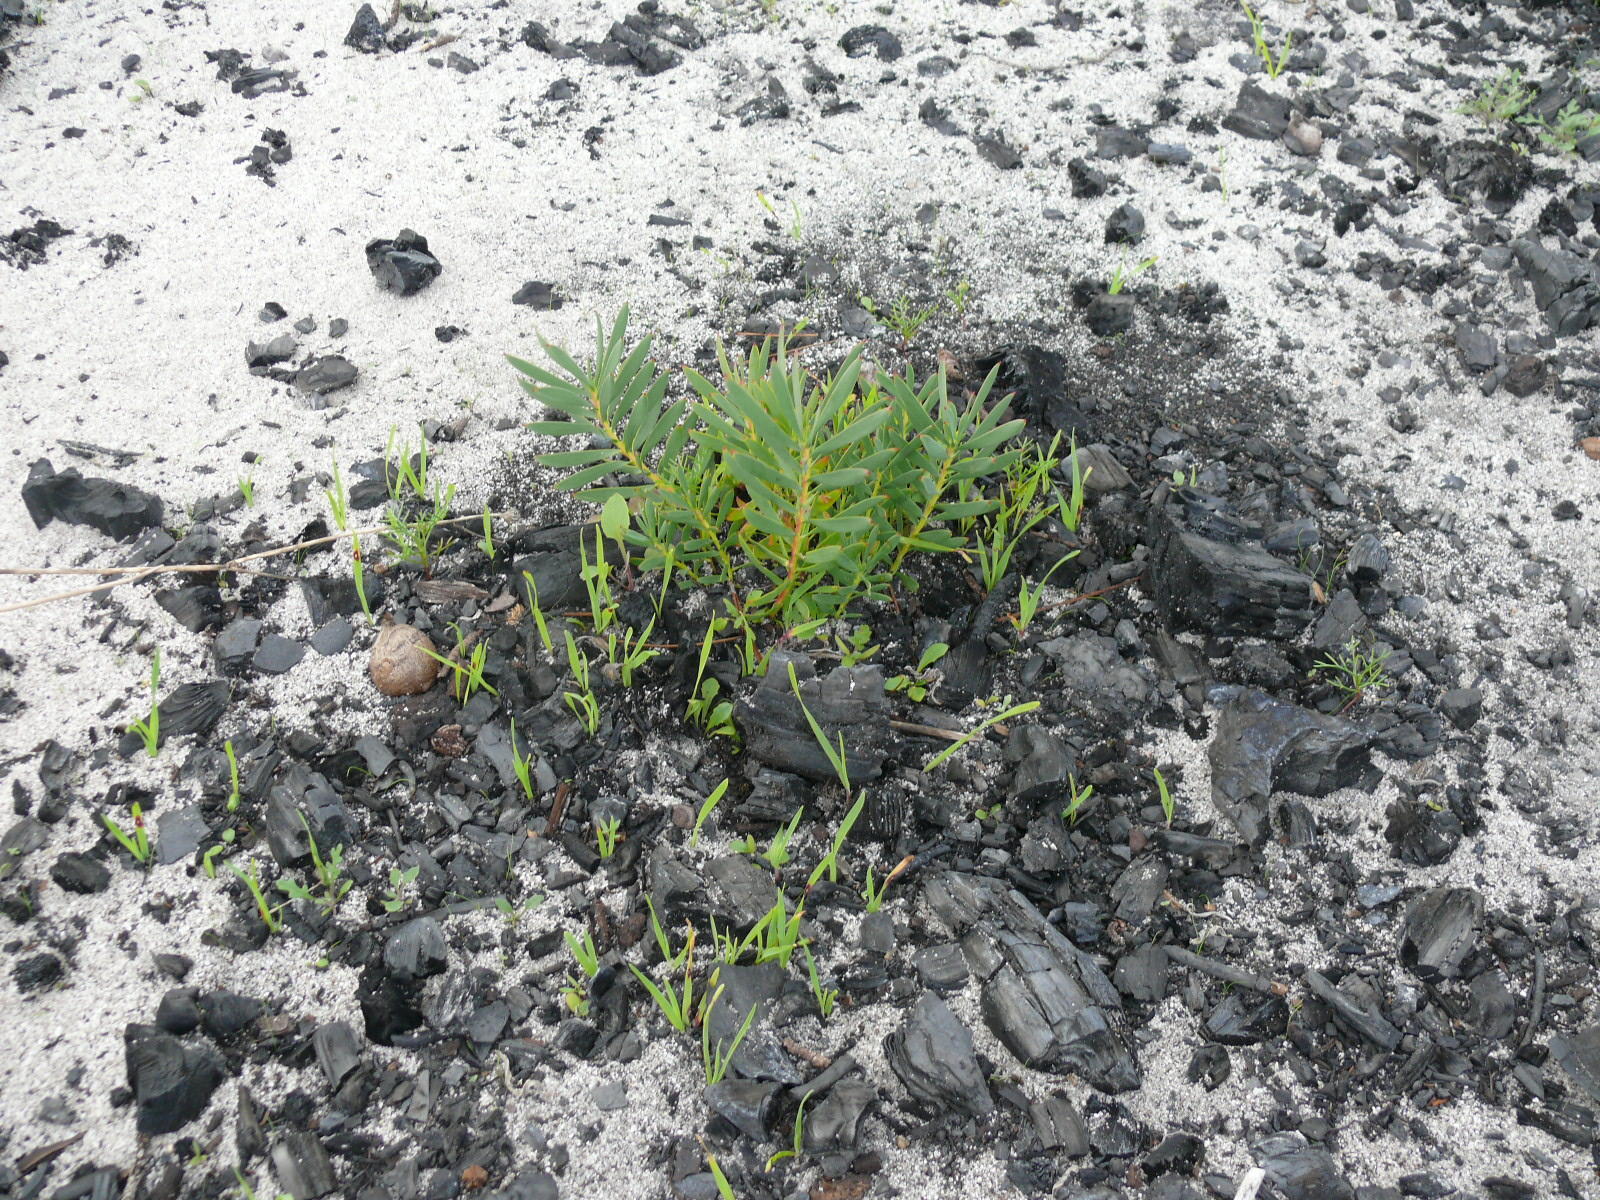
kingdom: Plantae
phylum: Tracheophyta
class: Magnoliopsida
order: Proteales
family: Proteaceae
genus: Leucadendron
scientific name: Leucadendron salignum
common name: Common sunshine conebush
